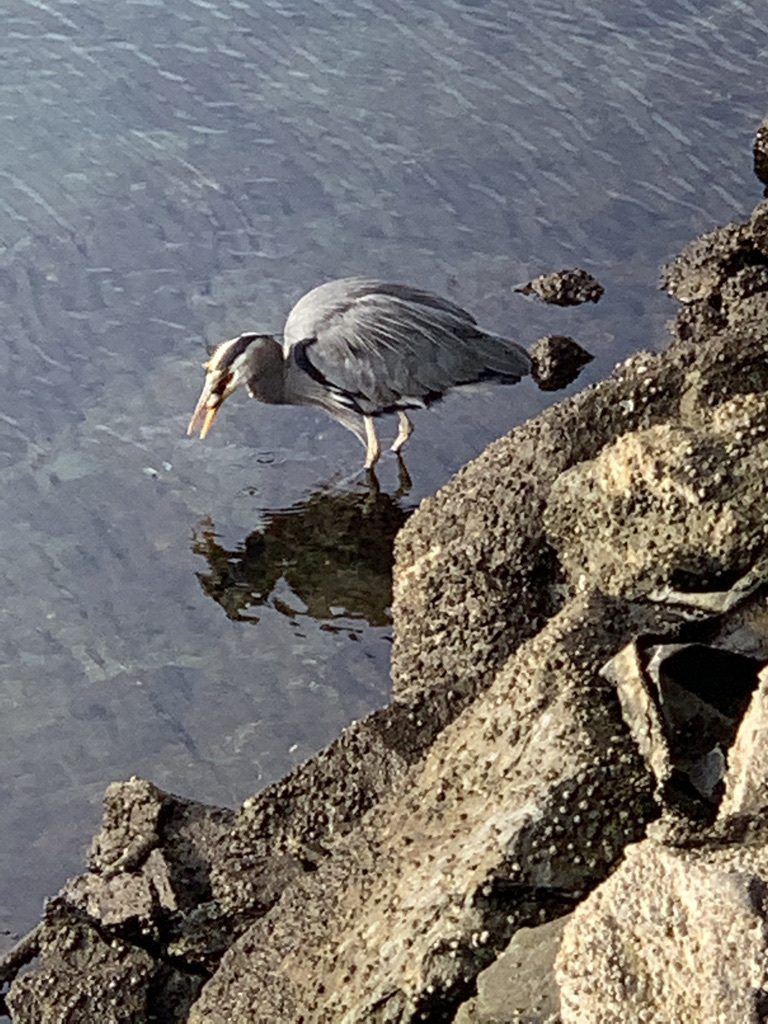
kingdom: Animalia
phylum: Chordata
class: Aves
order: Pelecaniformes
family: Ardeidae
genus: Ardea
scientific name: Ardea herodias
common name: Great blue heron
